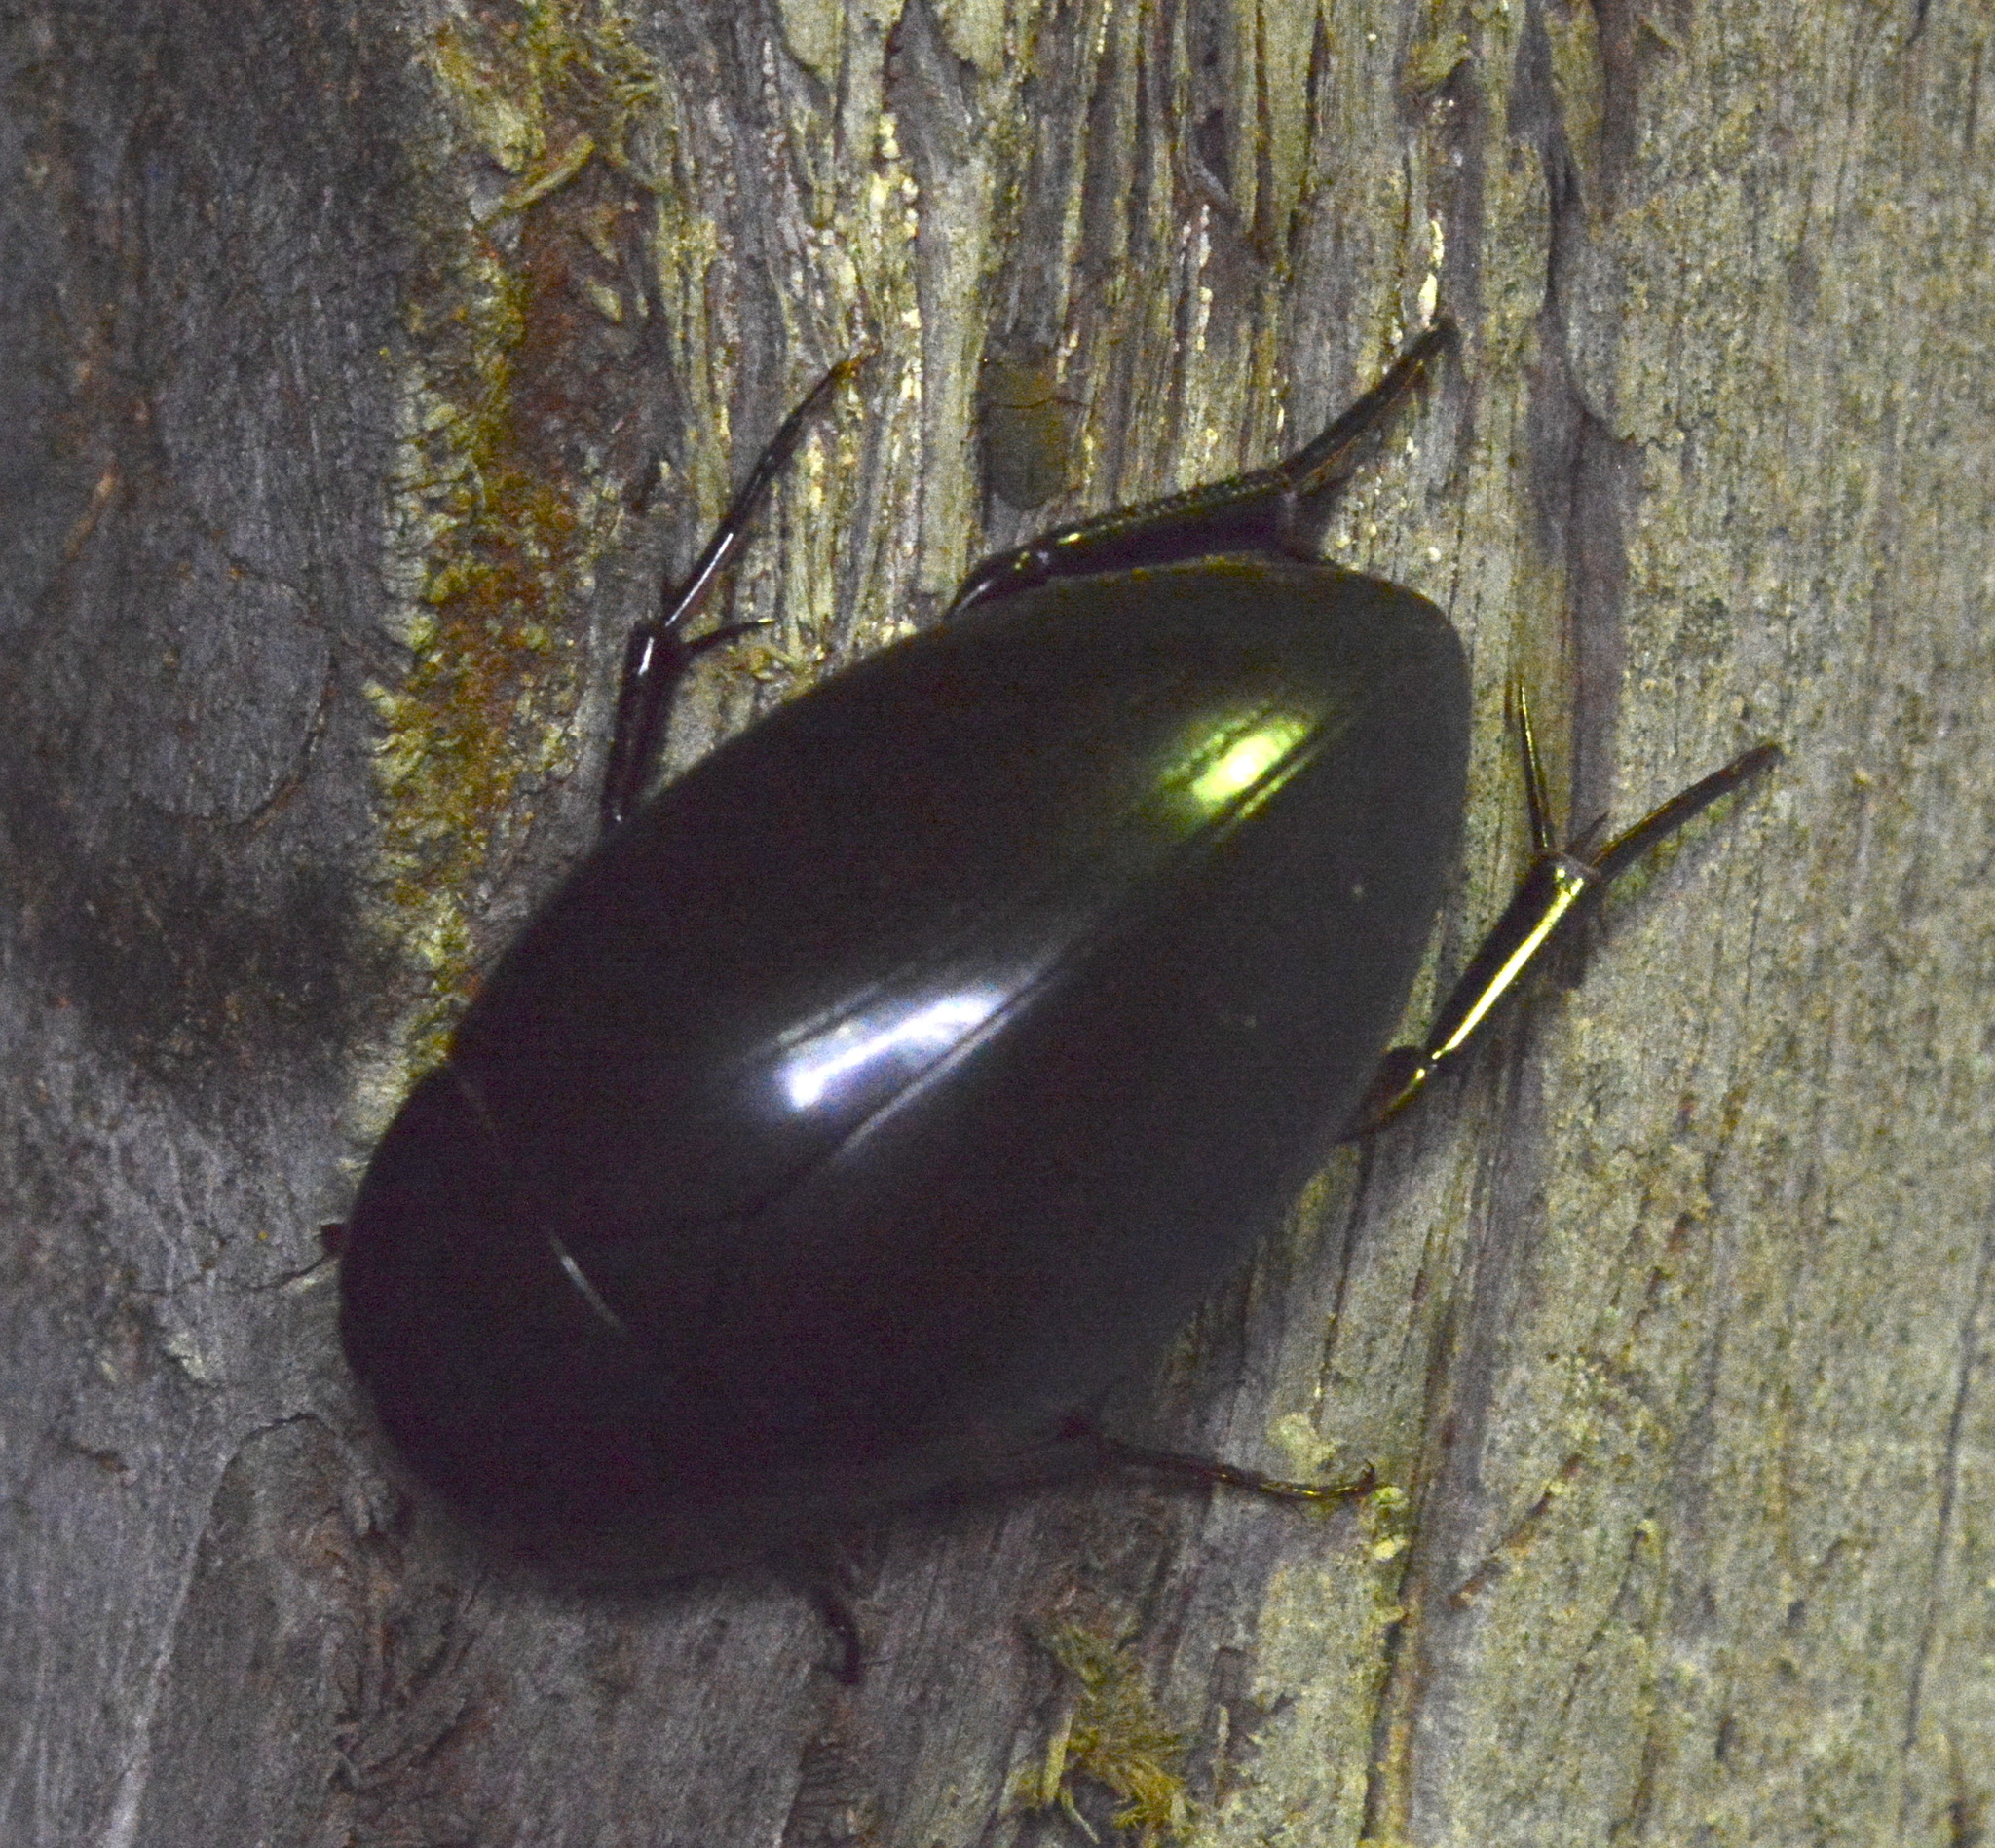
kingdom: Animalia
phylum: Arthropoda
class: Insecta
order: Coleoptera
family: Hydrophilidae
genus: Hydrophilus
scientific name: Hydrophilus ovatus
